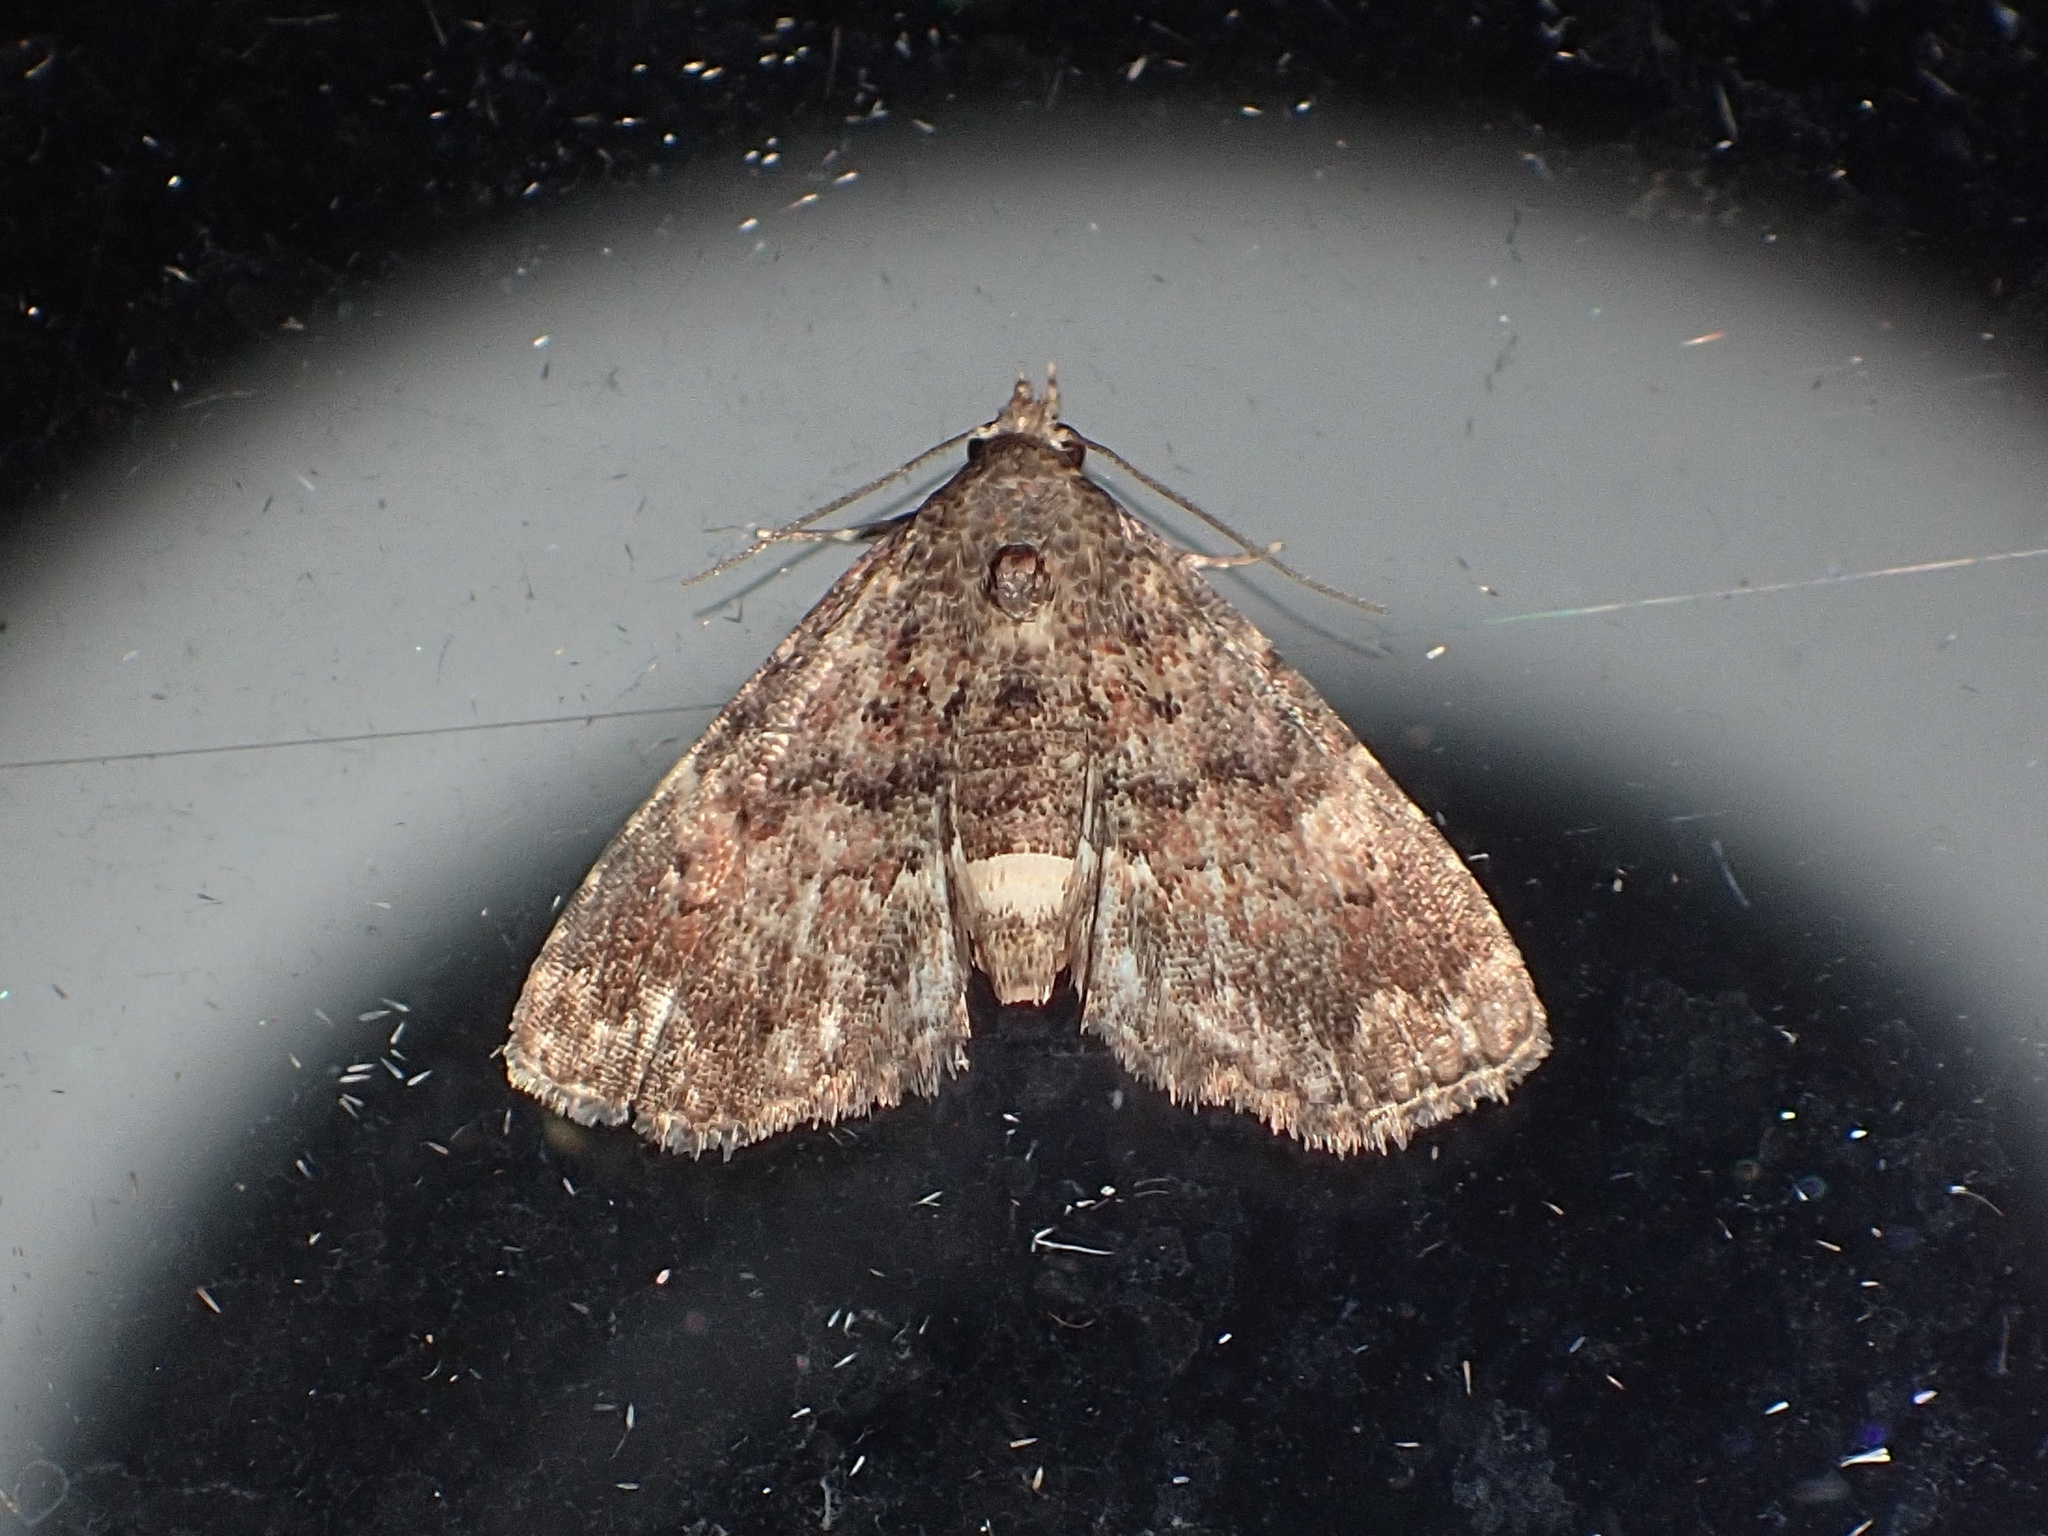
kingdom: Animalia
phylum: Arthropoda
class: Insecta
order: Lepidoptera
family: Erebidae
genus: Metalectra
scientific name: Metalectra richardsi
